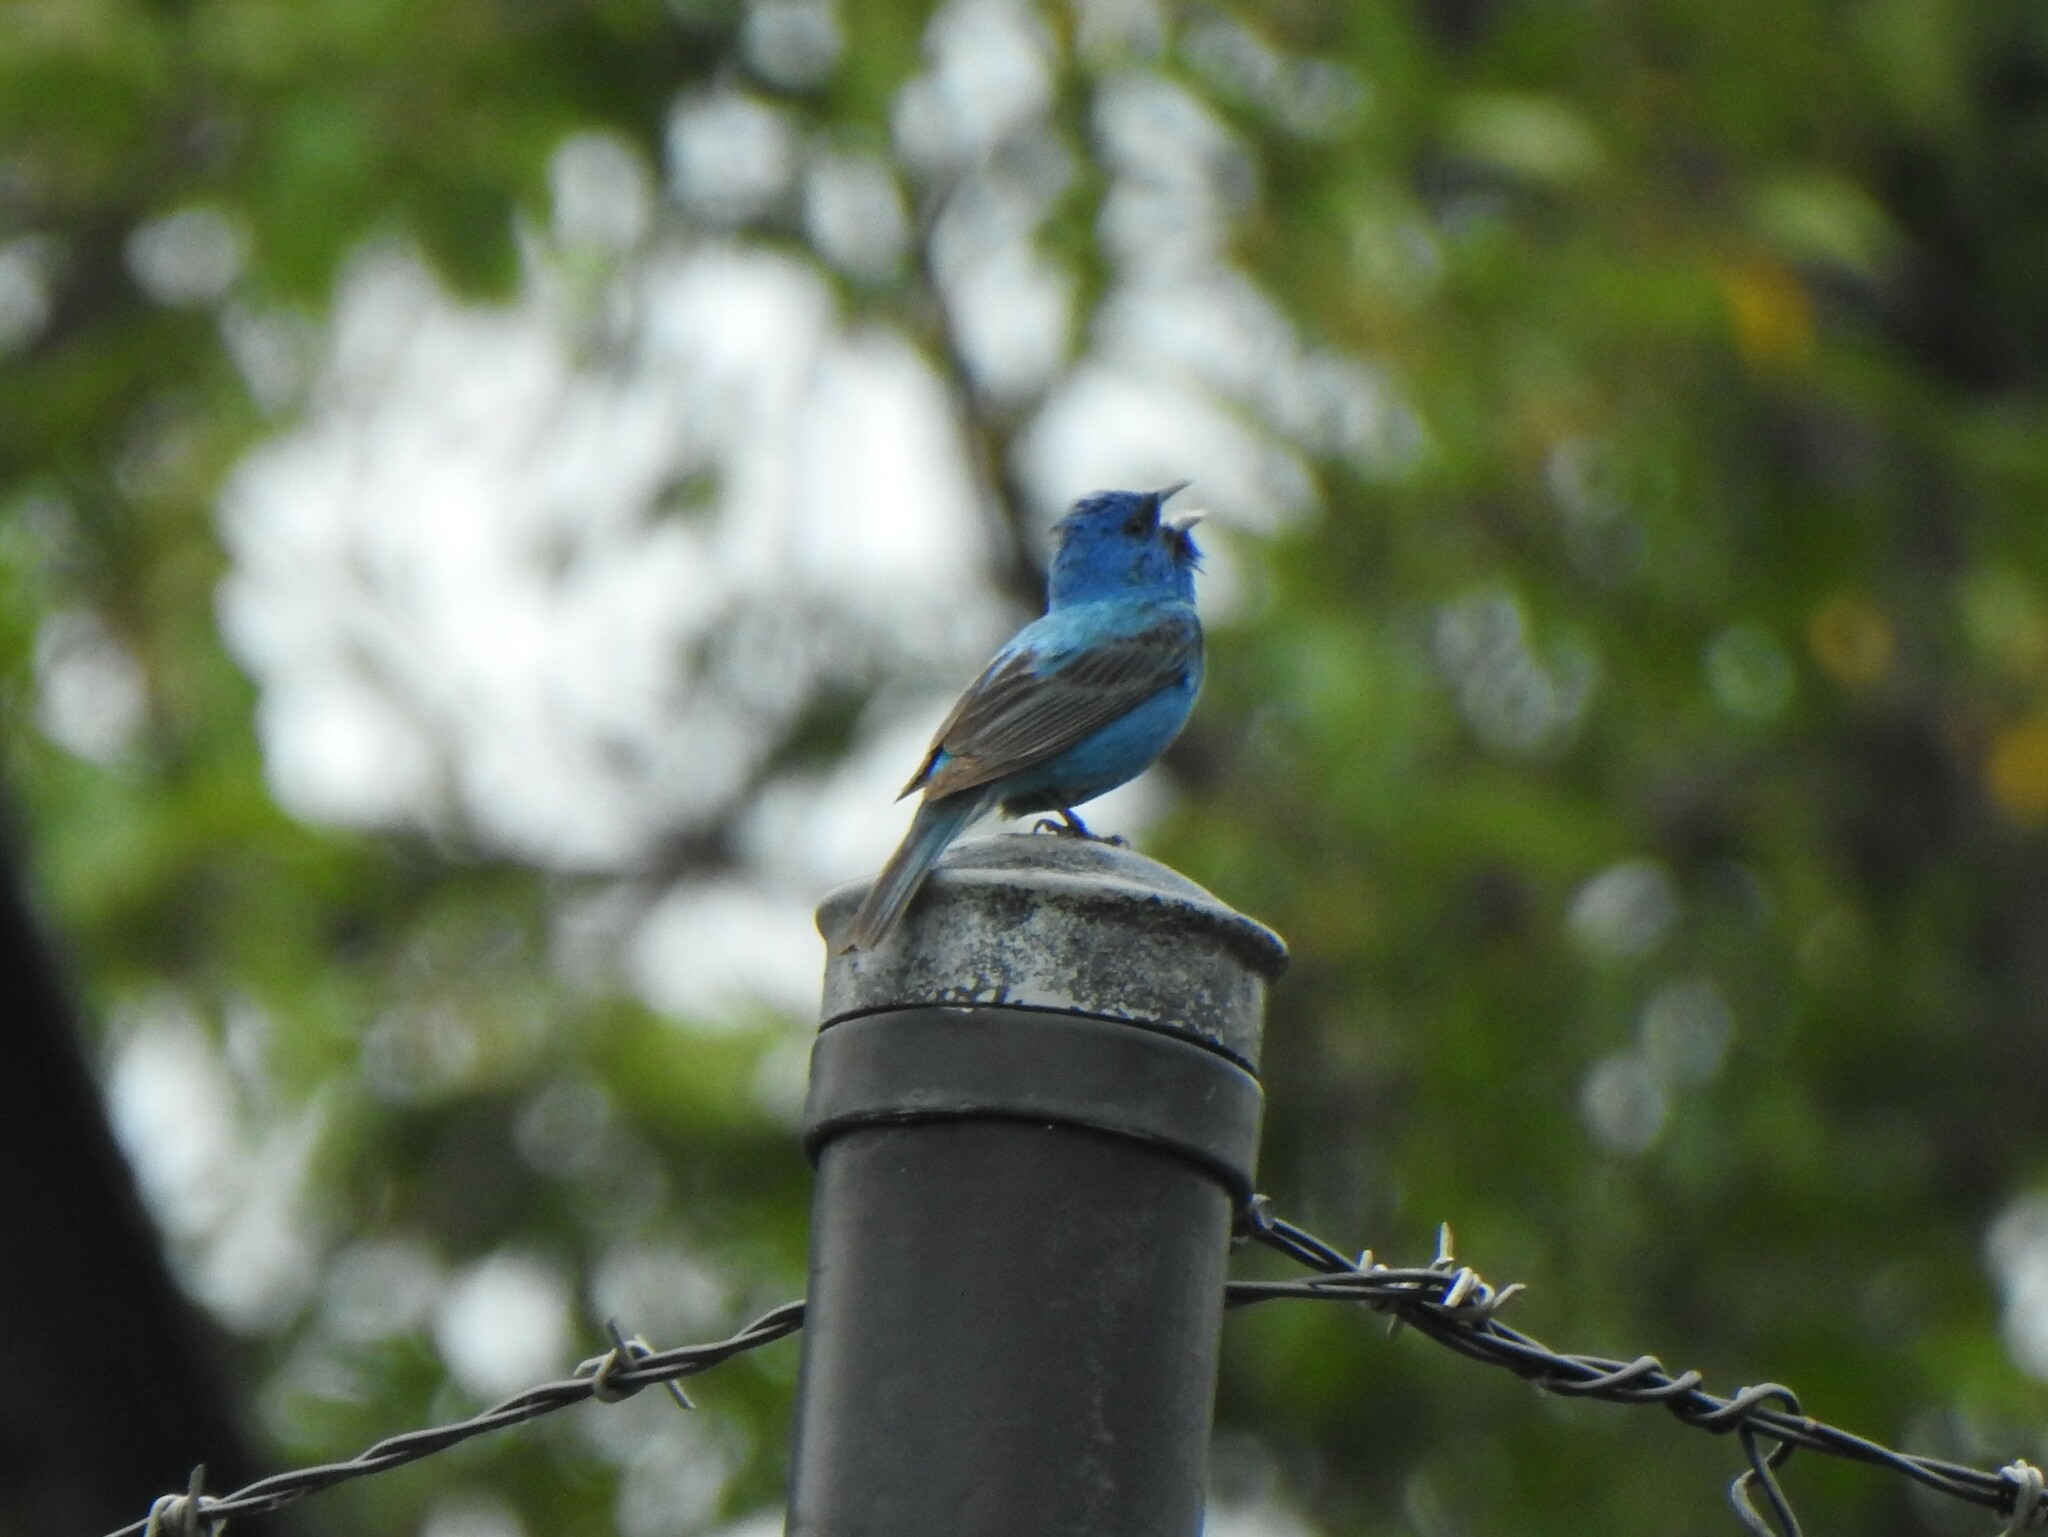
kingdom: Animalia
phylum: Chordata
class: Aves
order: Passeriformes
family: Cardinalidae
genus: Passerina
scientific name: Passerina cyanea
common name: Indigo bunting
